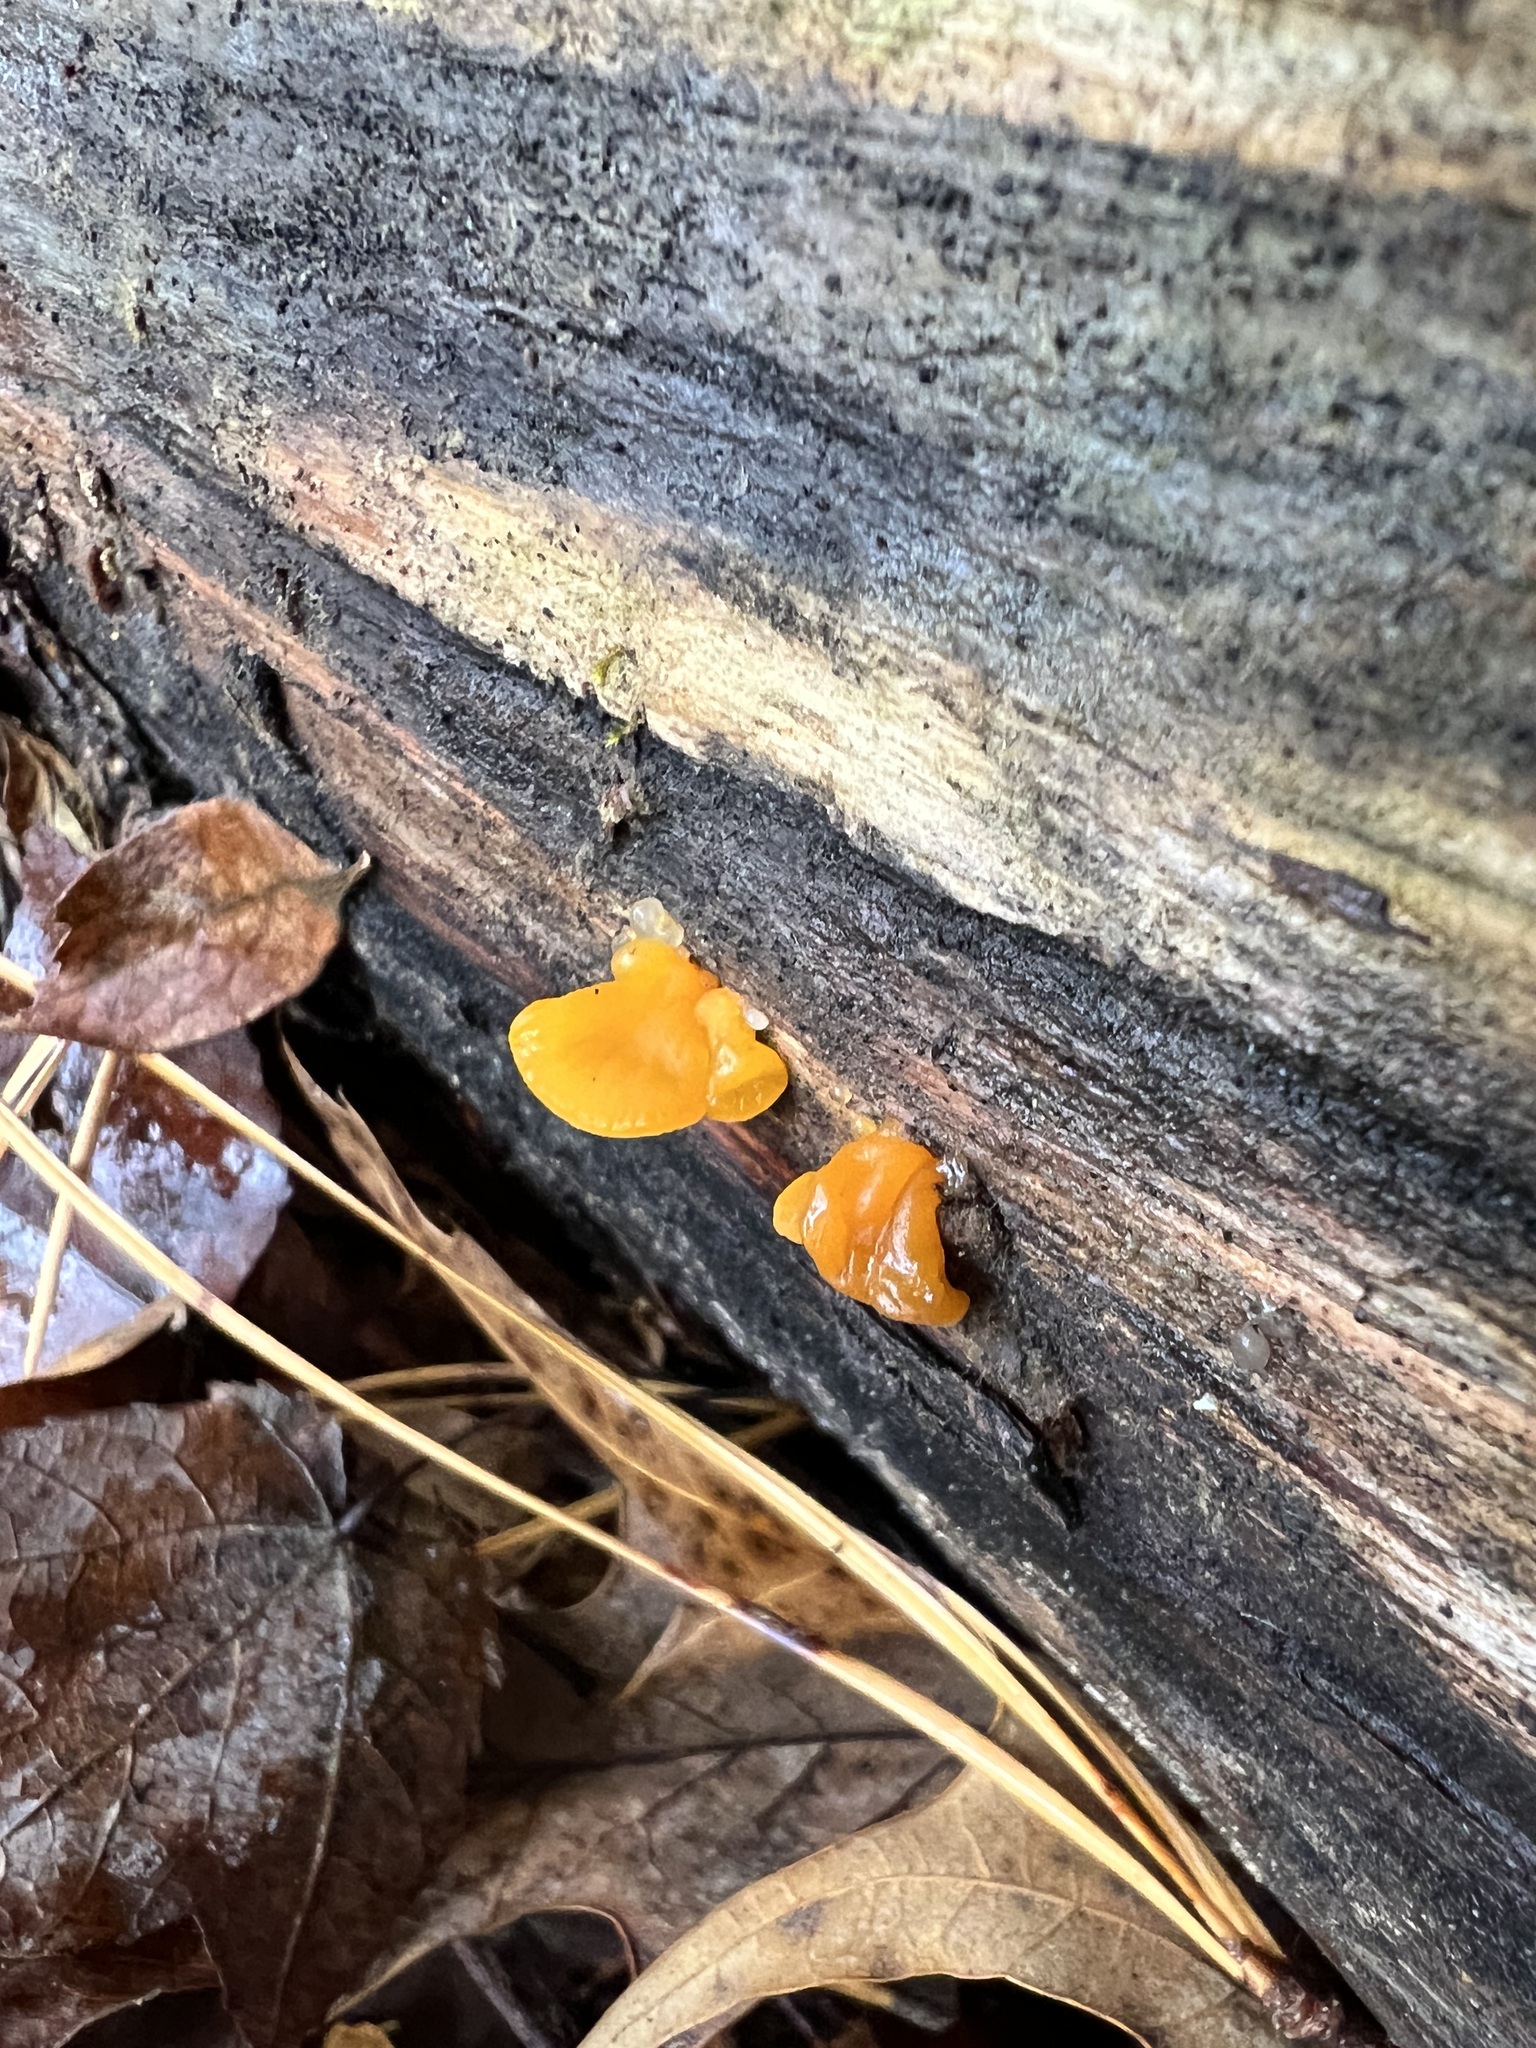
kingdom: Fungi
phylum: Basidiomycota
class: Dacrymycetes
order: Dacrymycetales
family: Dacrymycetaceae
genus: Dacrymyces
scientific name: Dacrymyces chrysospermus
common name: Orange jelly spot
